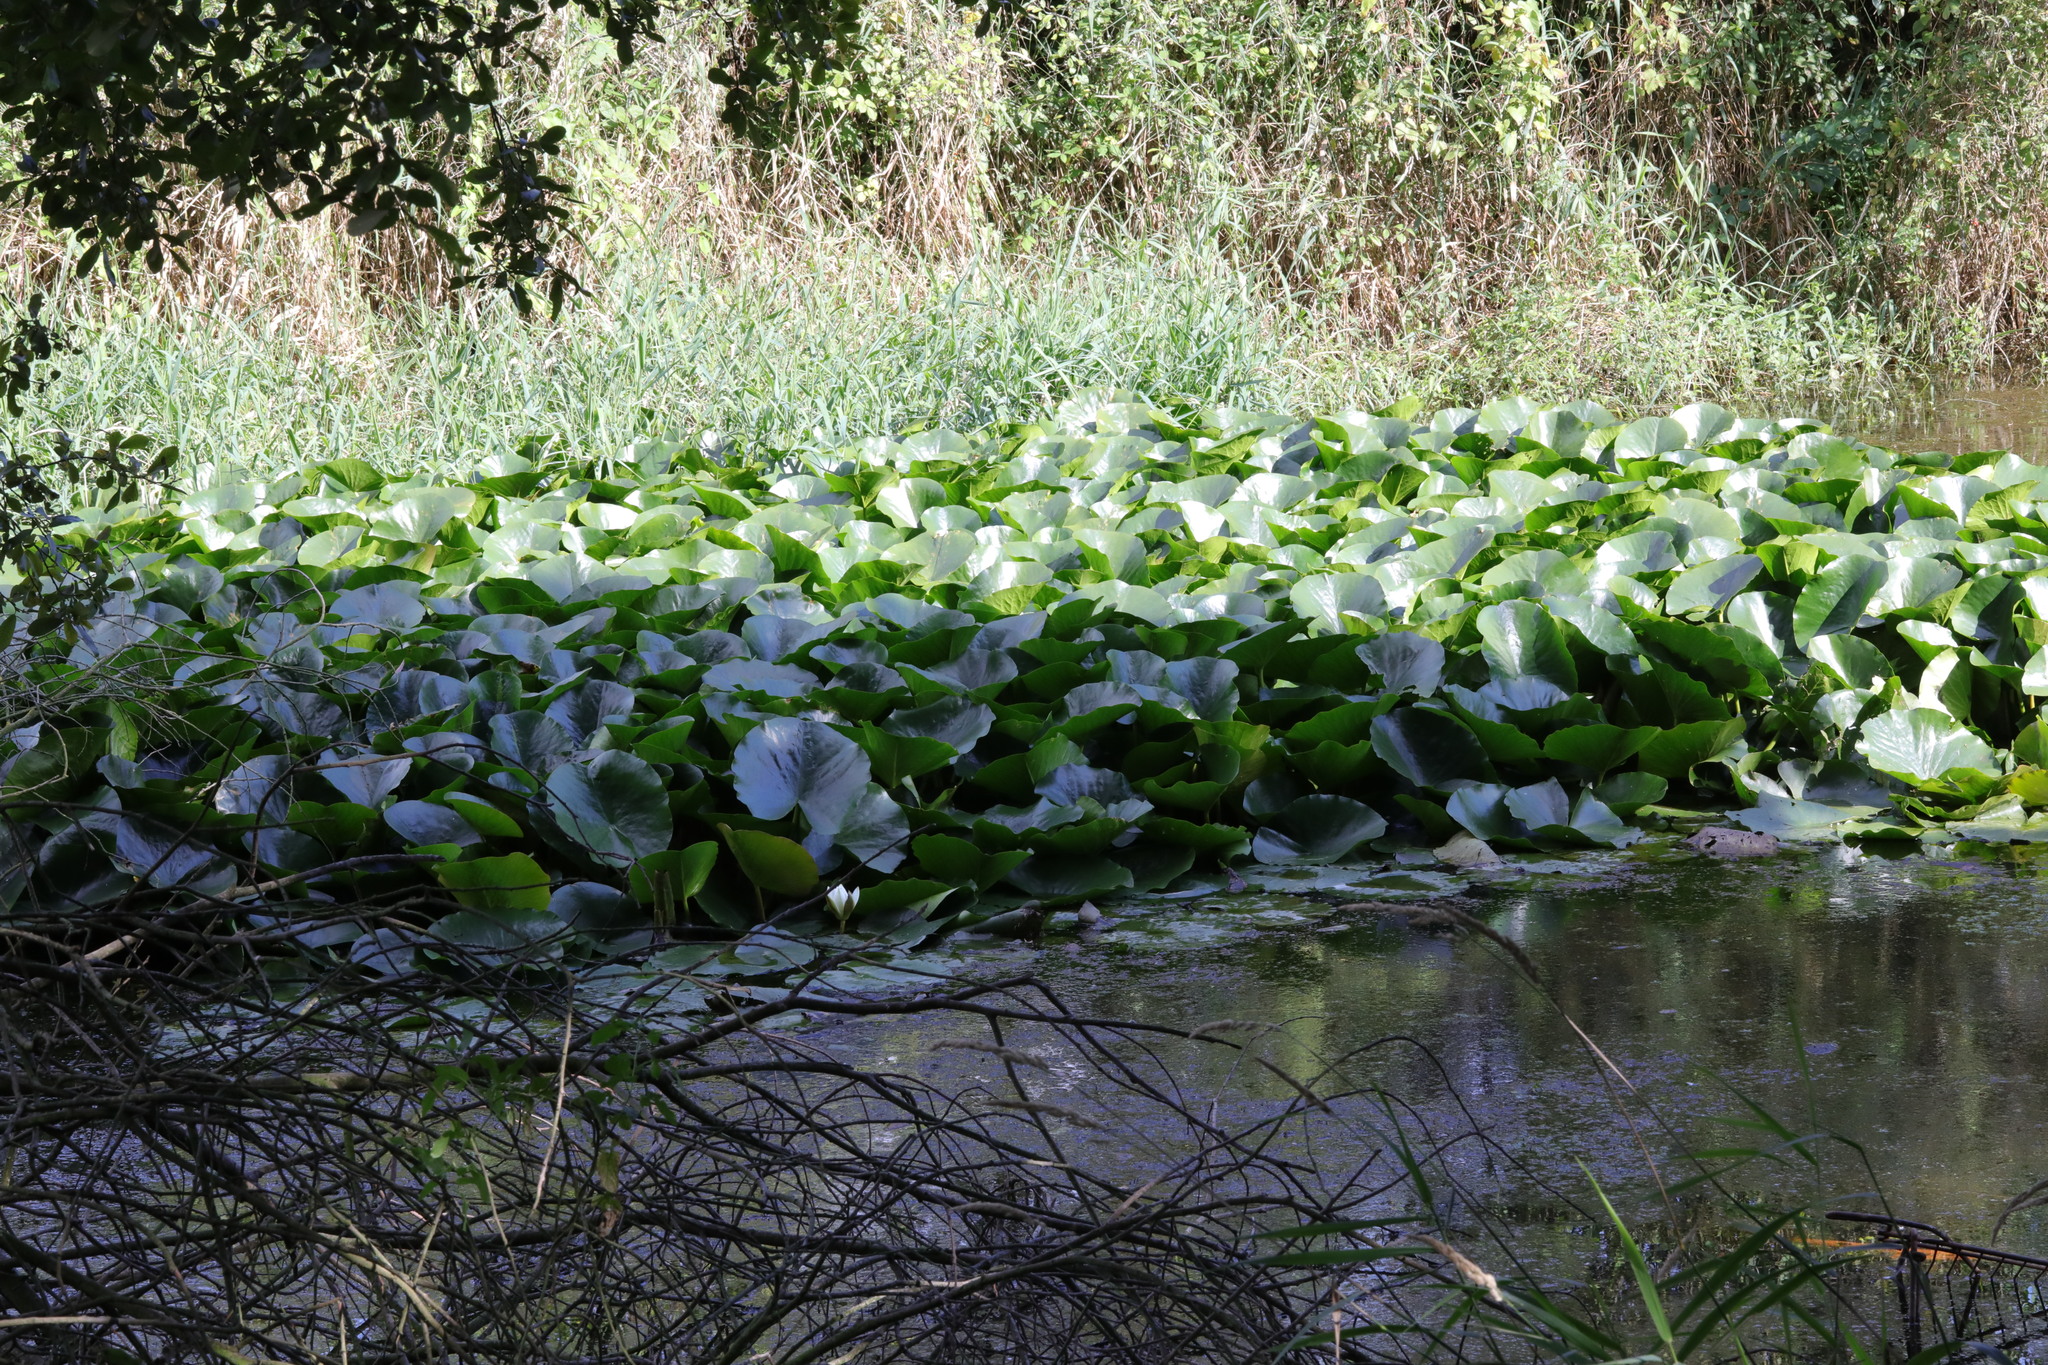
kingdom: Plantae
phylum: Tracheophyta
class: Magnoliopsida
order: Nymphaeales
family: Nymphaeaceae
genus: Nymphaea
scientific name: Nymphaea alba
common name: White water-lily
